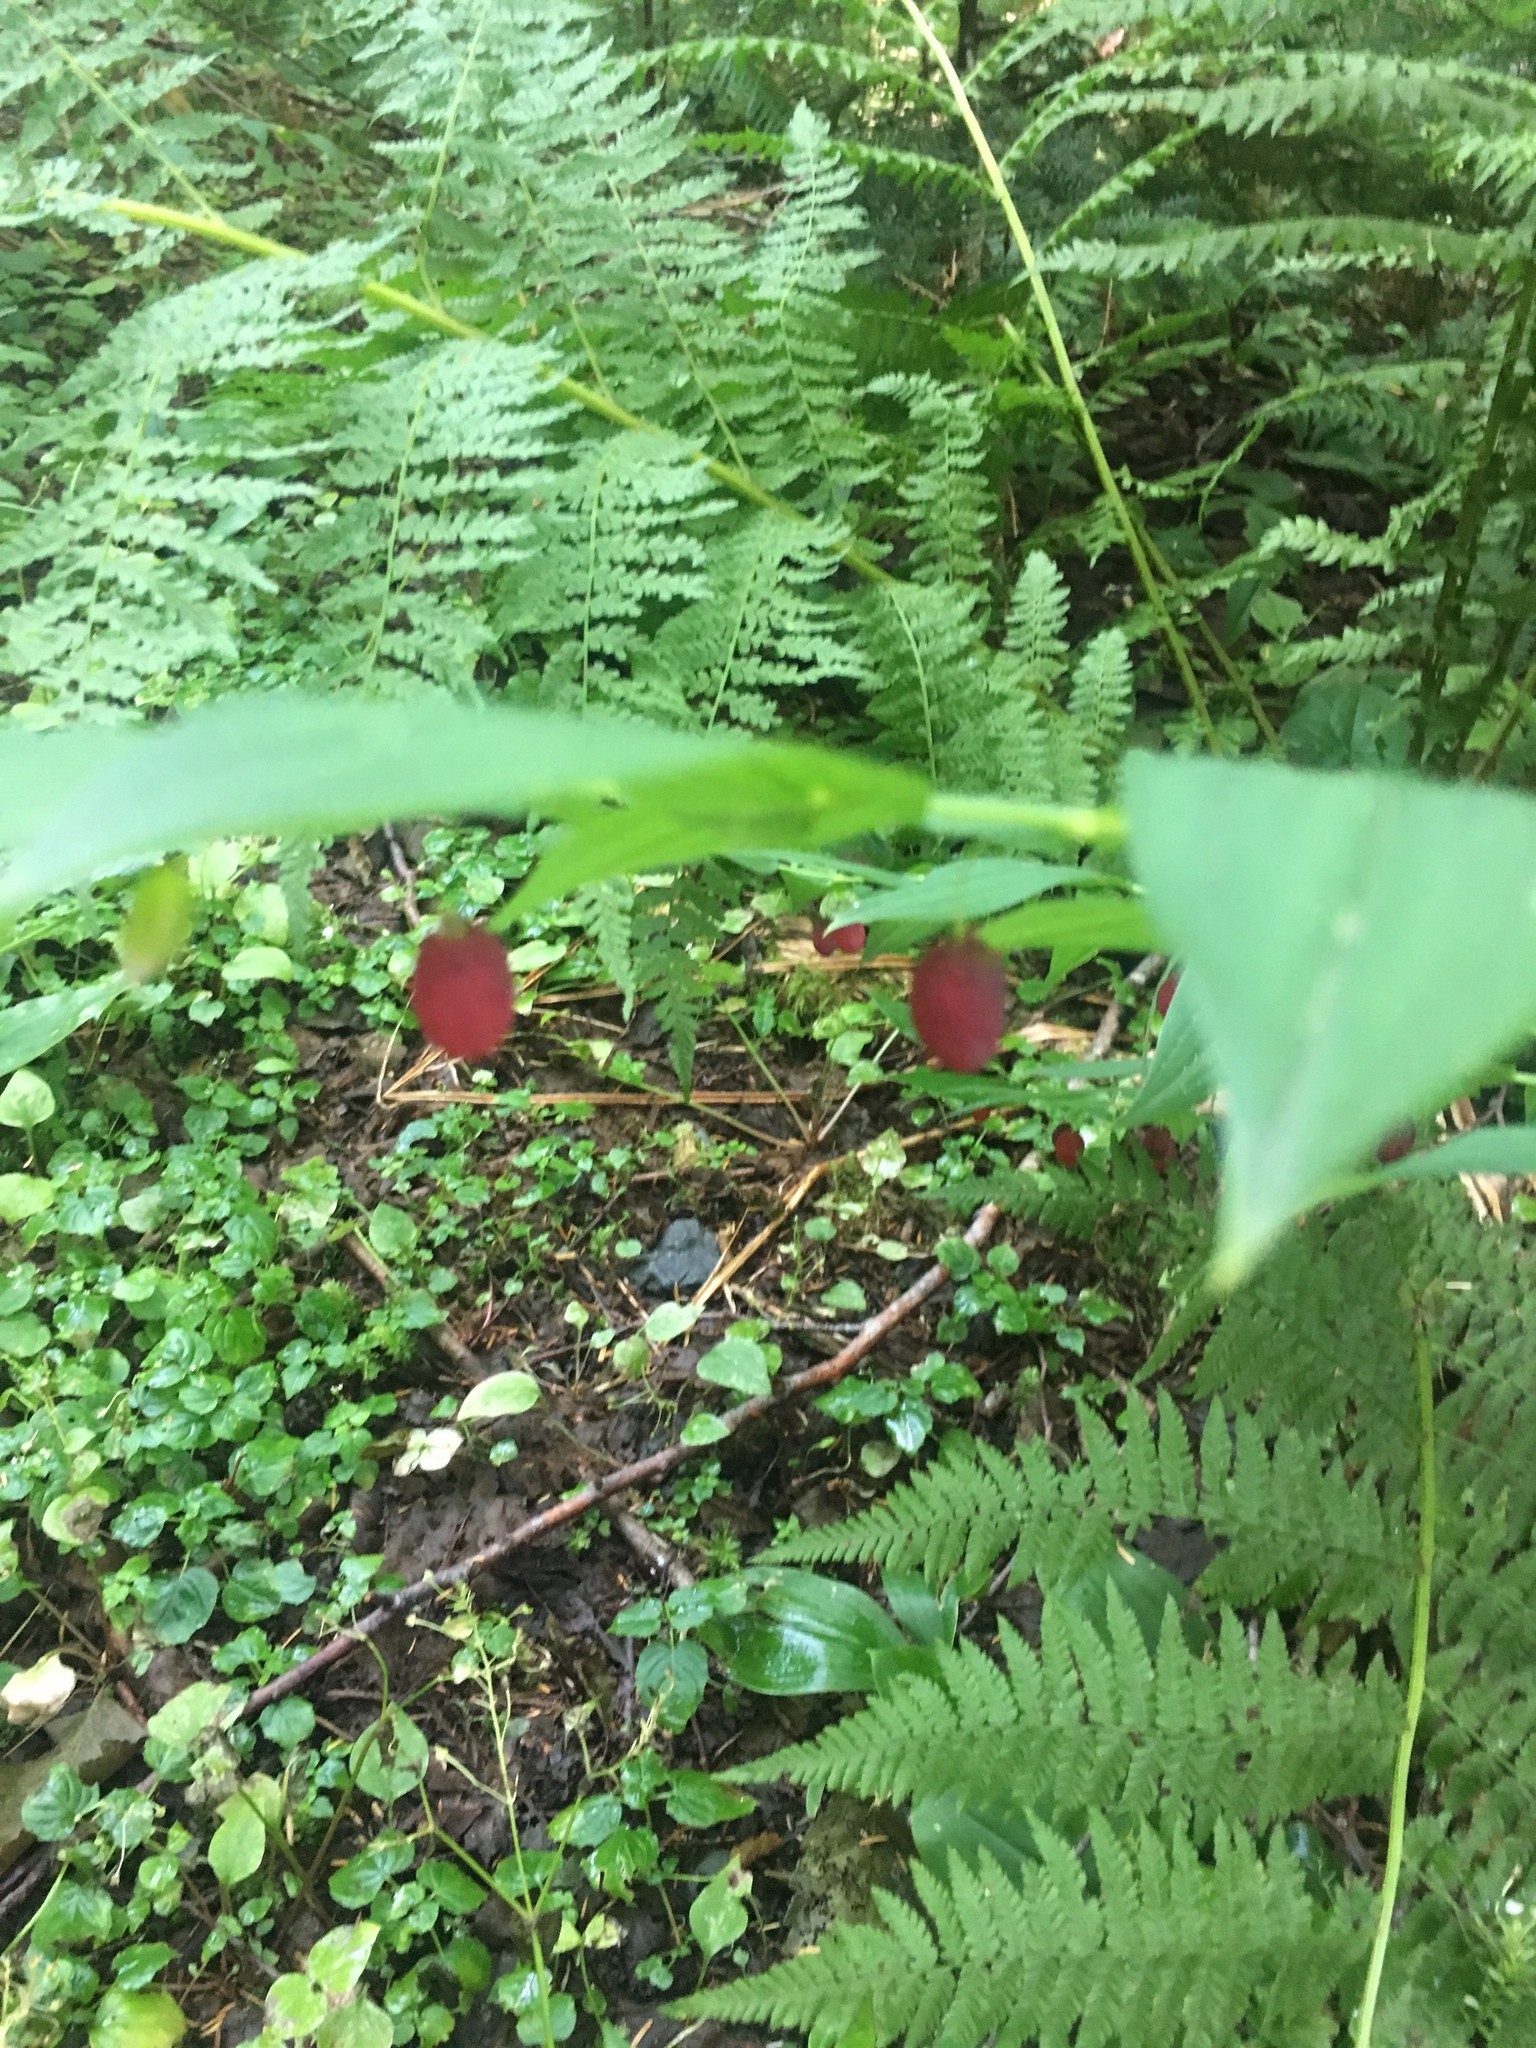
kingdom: Plantae
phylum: Tracheophyta
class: Liliopsida
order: Liliales
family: Liliaceae
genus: Streptopus
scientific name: Streptopus amplexifolius
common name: Clasp twisted stalk
